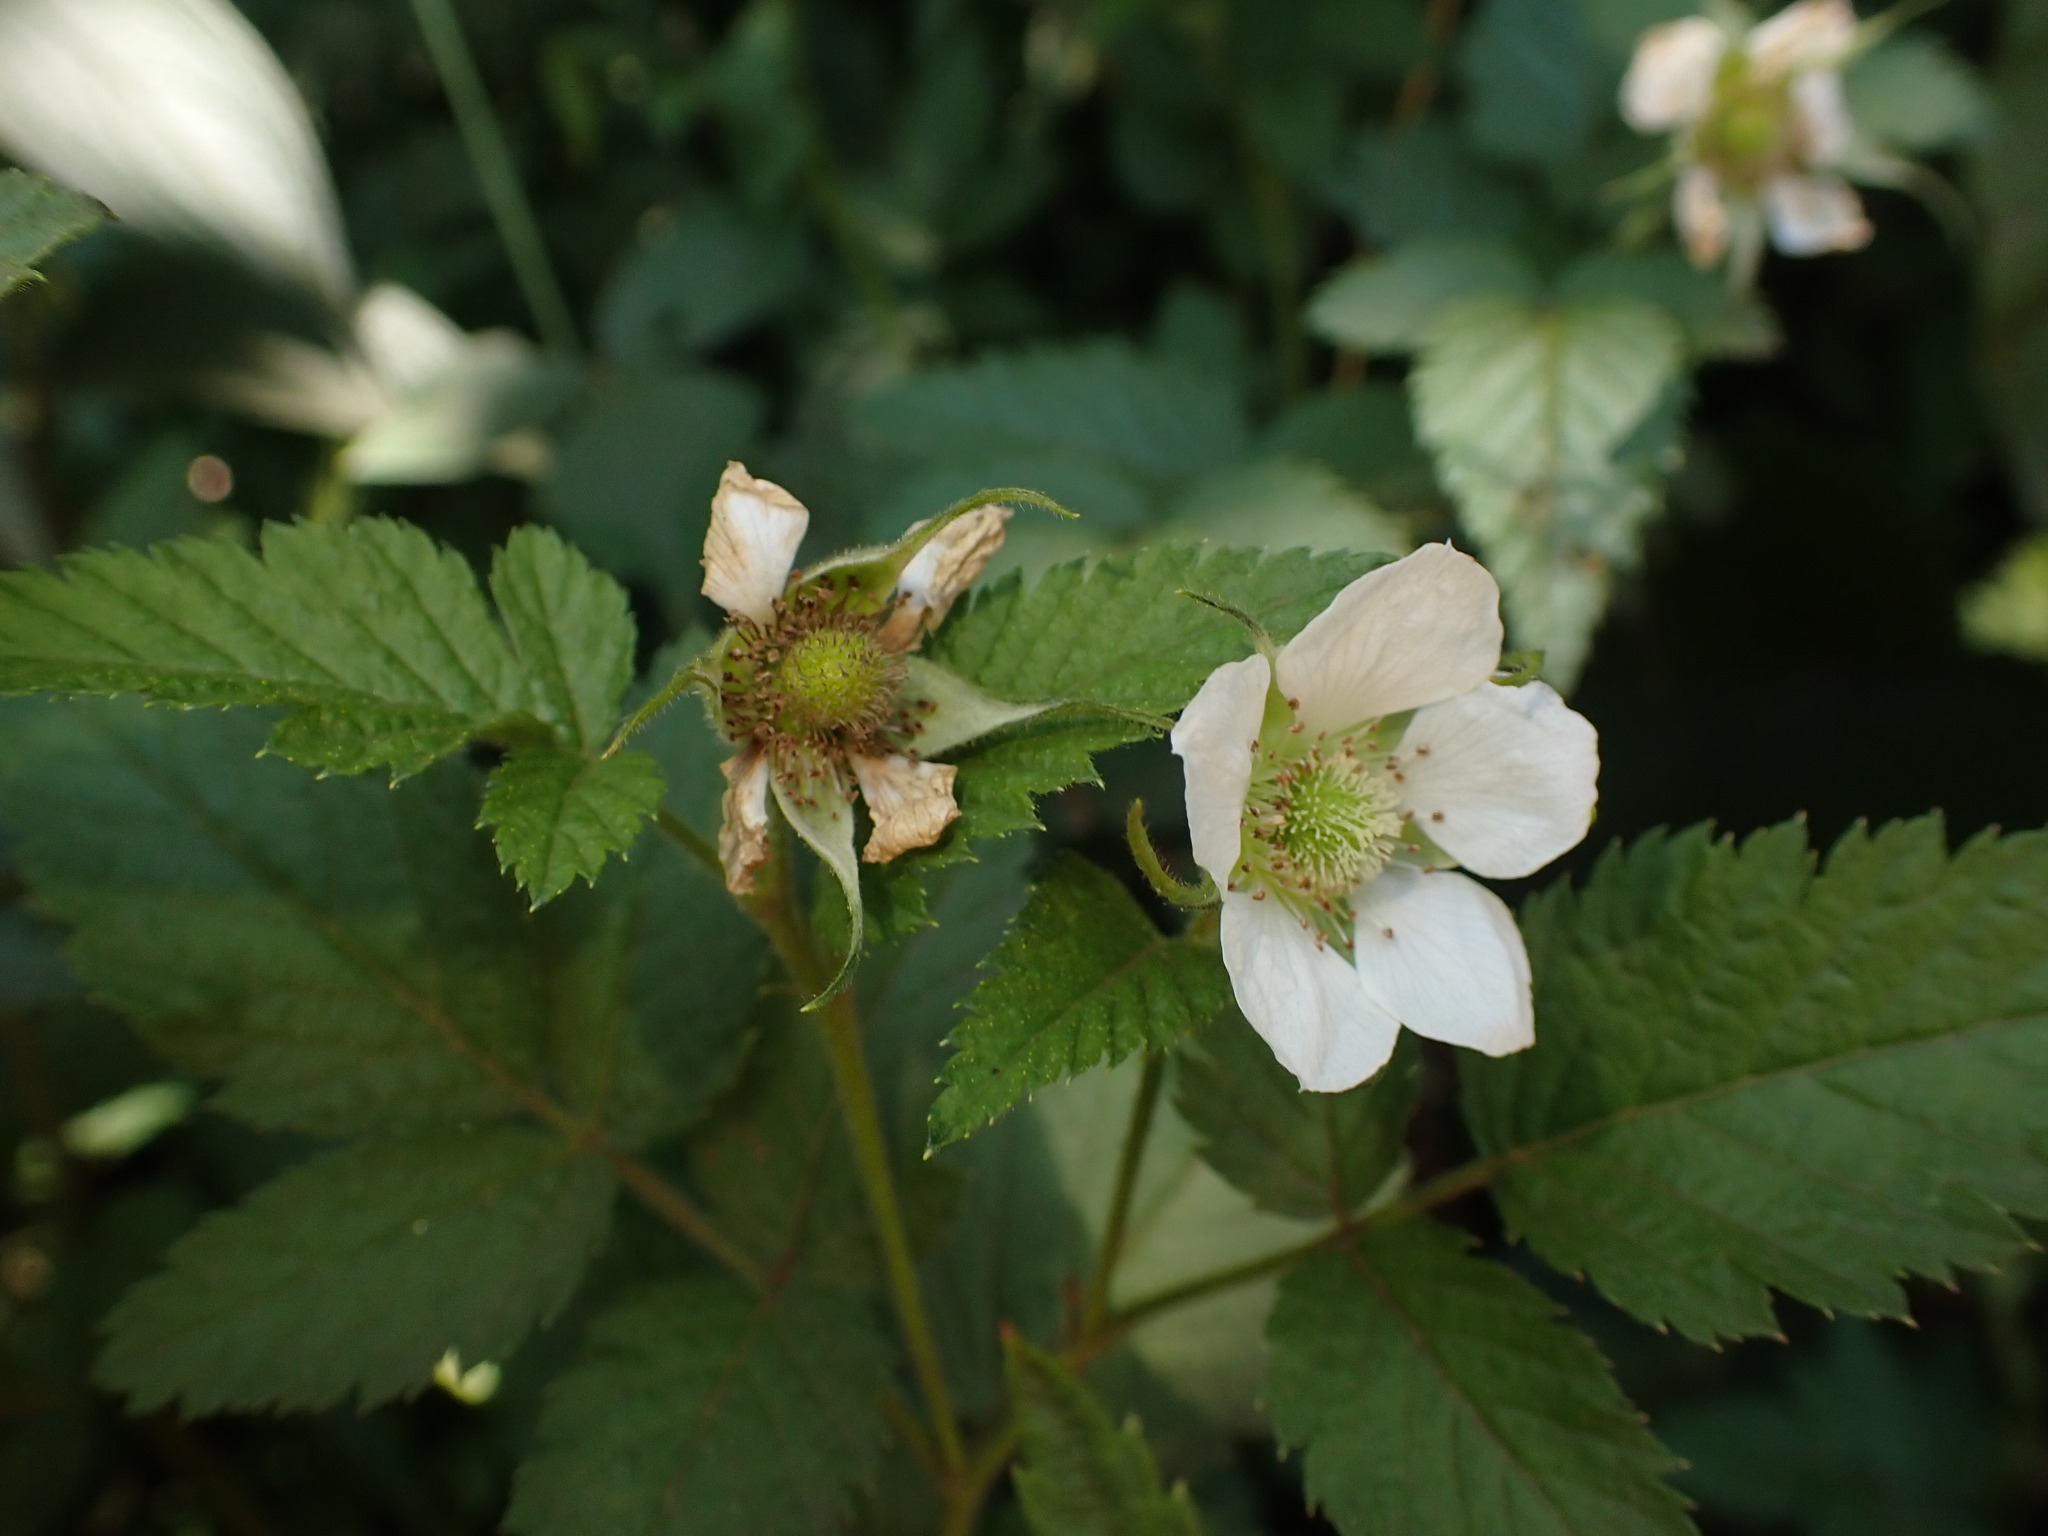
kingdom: Plantae
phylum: Tracheophyta
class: Magnoliopsida
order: Rosales
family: Rosaceae
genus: Rubus
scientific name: Rubus rosifolius
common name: Roseleaf raspberry
